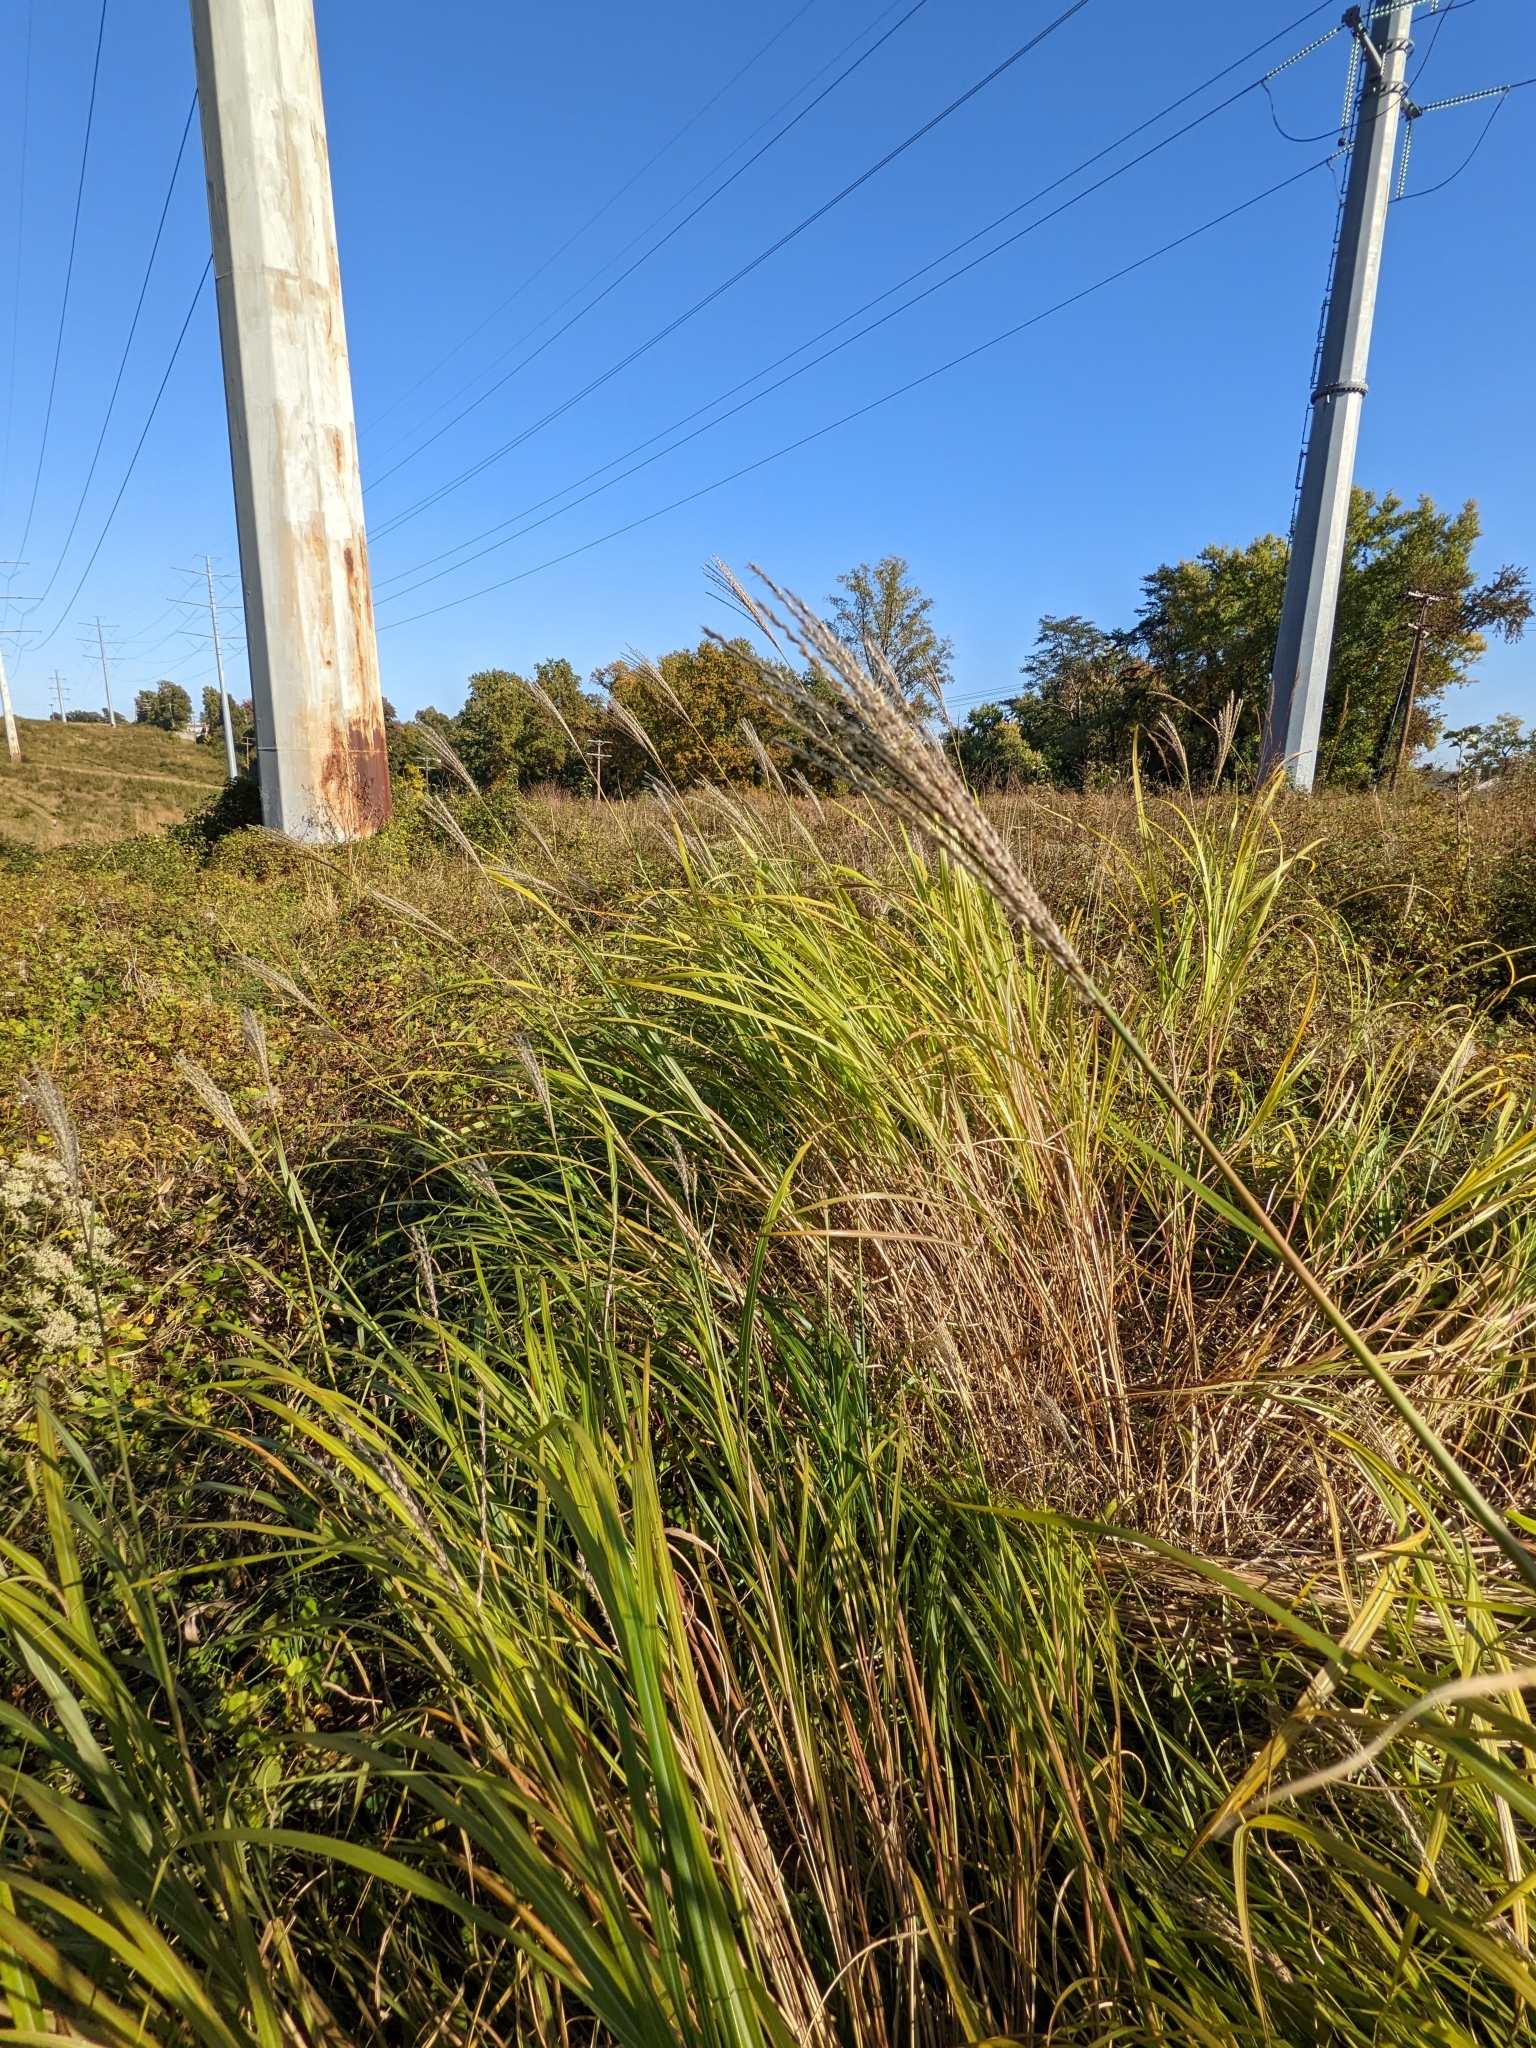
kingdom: Plantae
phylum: Tracheophyta
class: Liliopsida
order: Poales
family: Poaceae
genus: Miscanthus
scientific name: Miscanthus sinensis
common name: Chinese silvergrass
